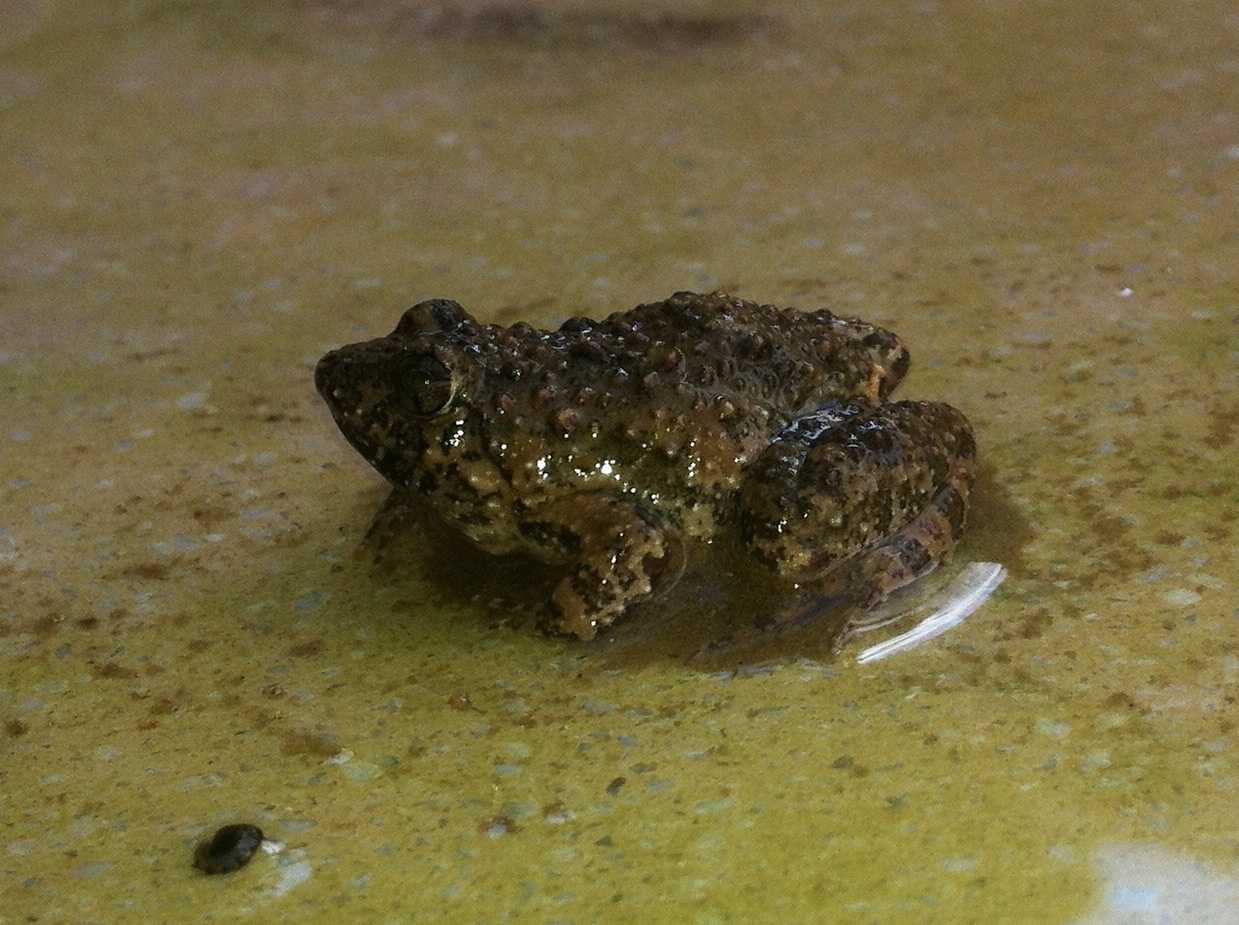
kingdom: Animalia
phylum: Chordata
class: Amphibia
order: Anura
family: Phrynobatrachidae
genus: Phrynobatrachus
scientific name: Phrynobatrachus natalensis
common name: Snoring puddle frog
